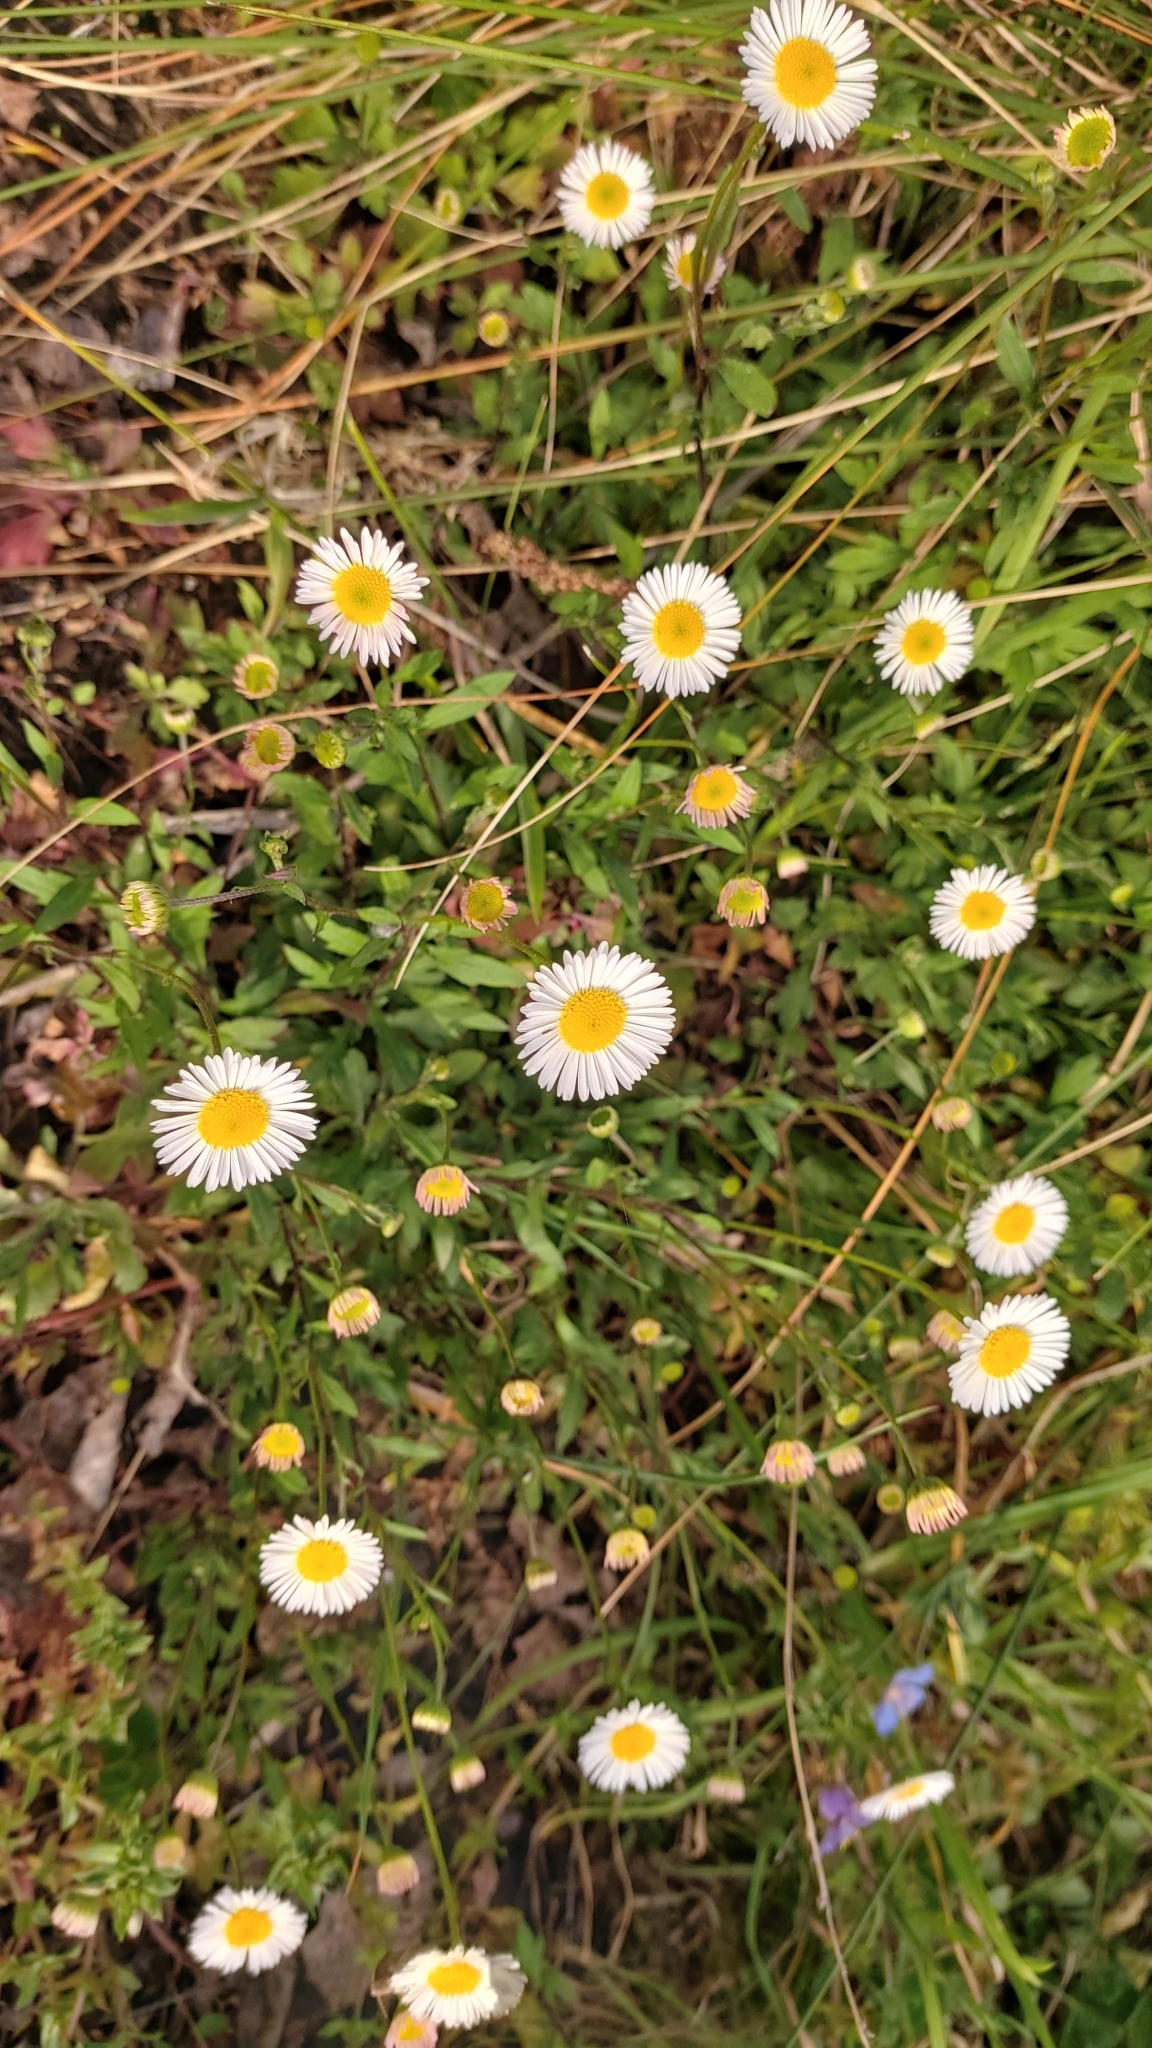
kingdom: Plantae
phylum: Tracheophyta
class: Magnoliopsida
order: Asterales
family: Asteraceae
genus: Erigeron
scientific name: Erigeron karvinskianus
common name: Mexican fleabane
